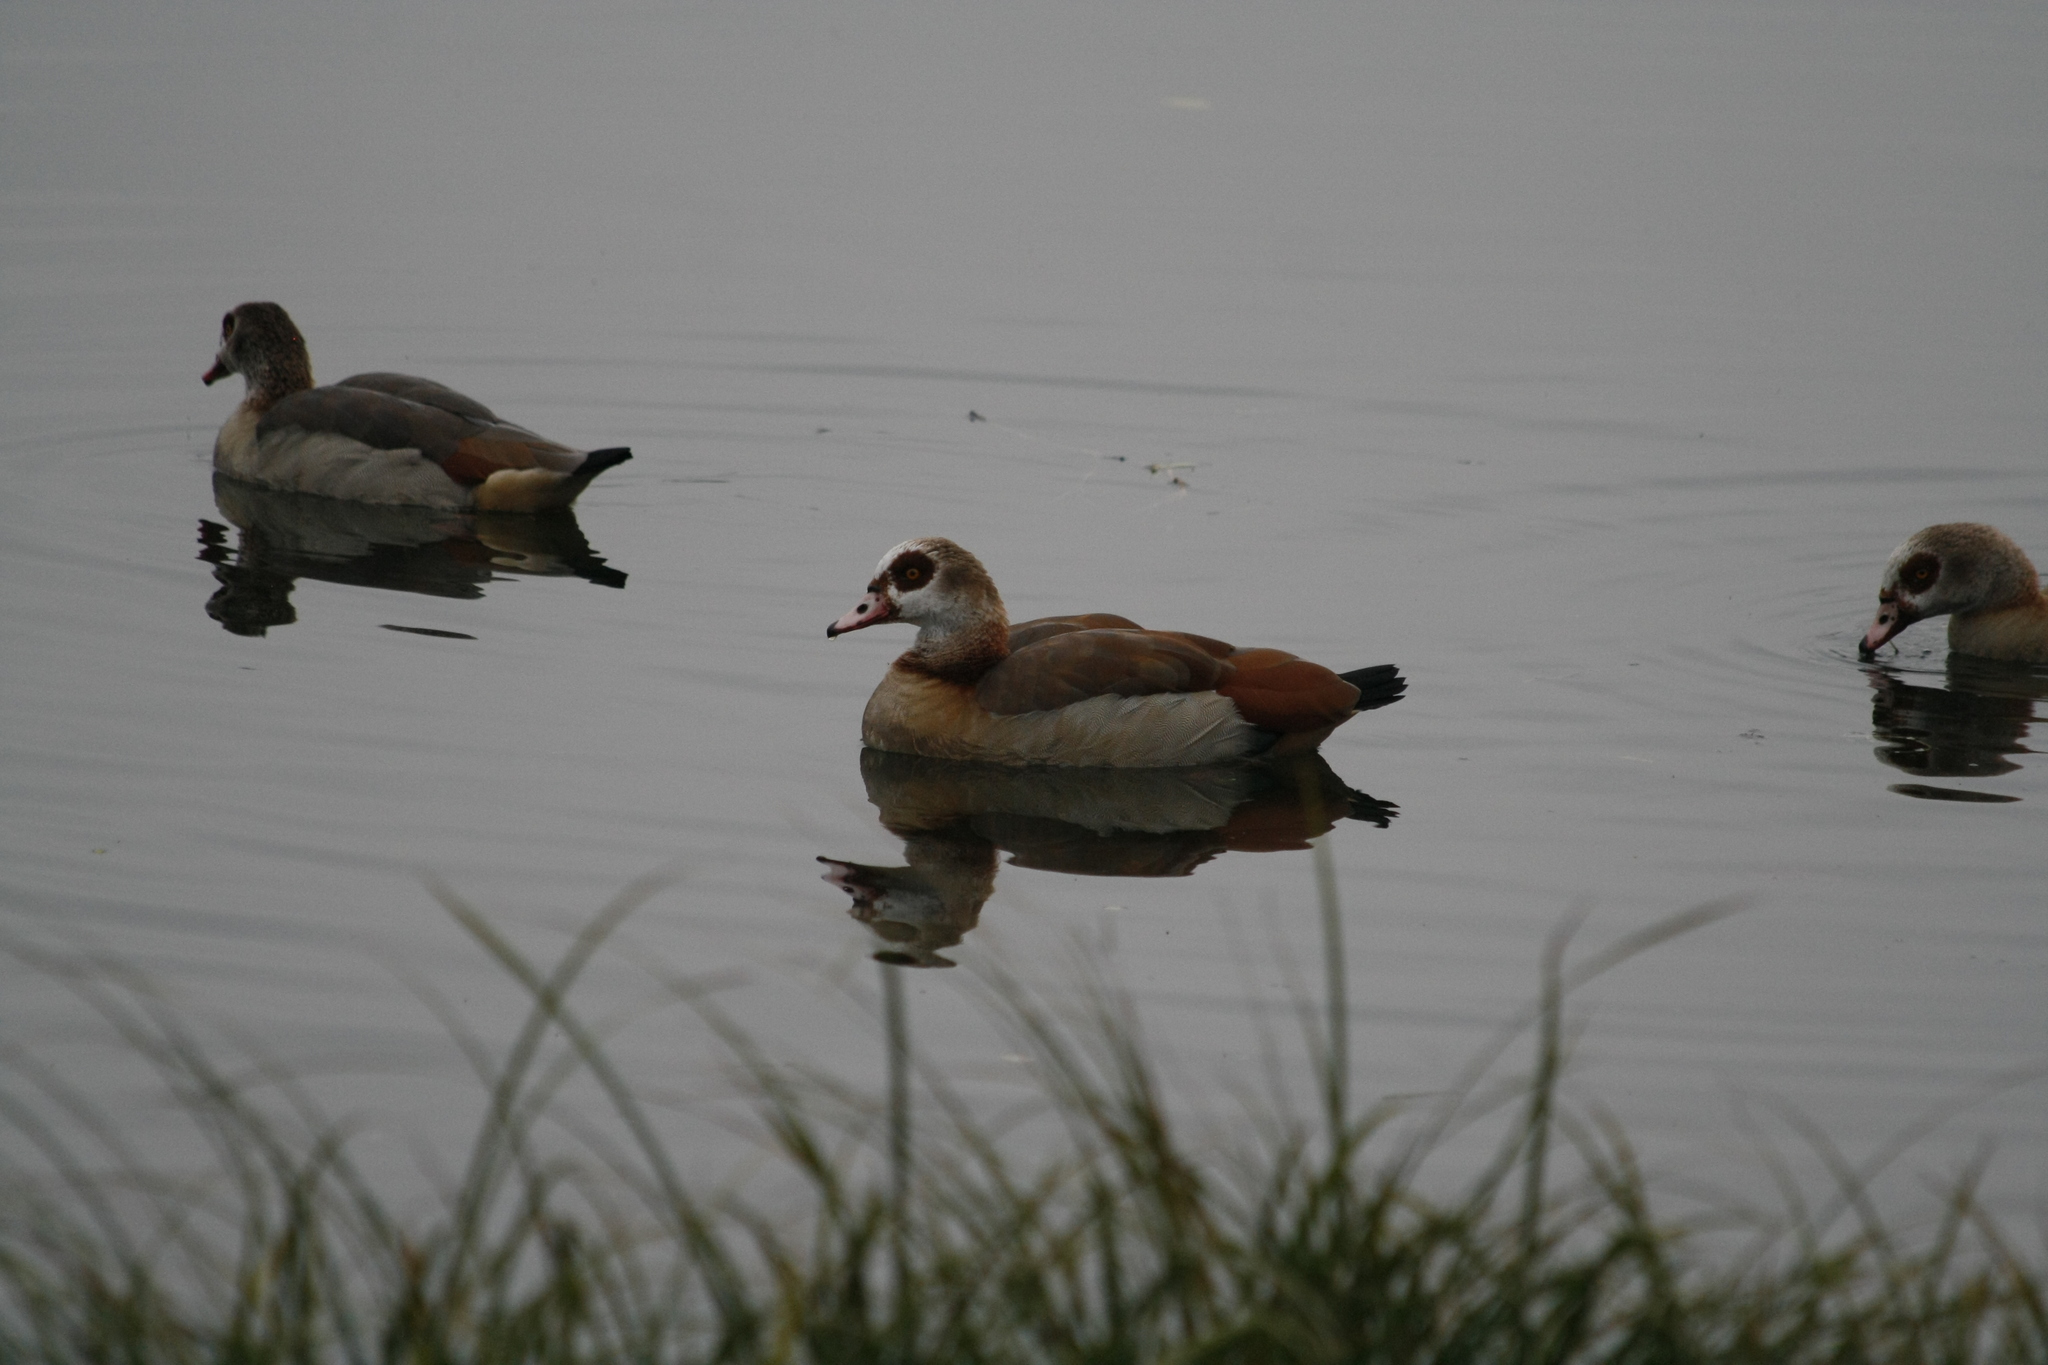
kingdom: Animalia
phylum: Chordata
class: Aves
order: Anseriformes
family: Anatidae
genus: Alopochen
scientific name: Alopochen aegyptiaca
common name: Egyptian goose
